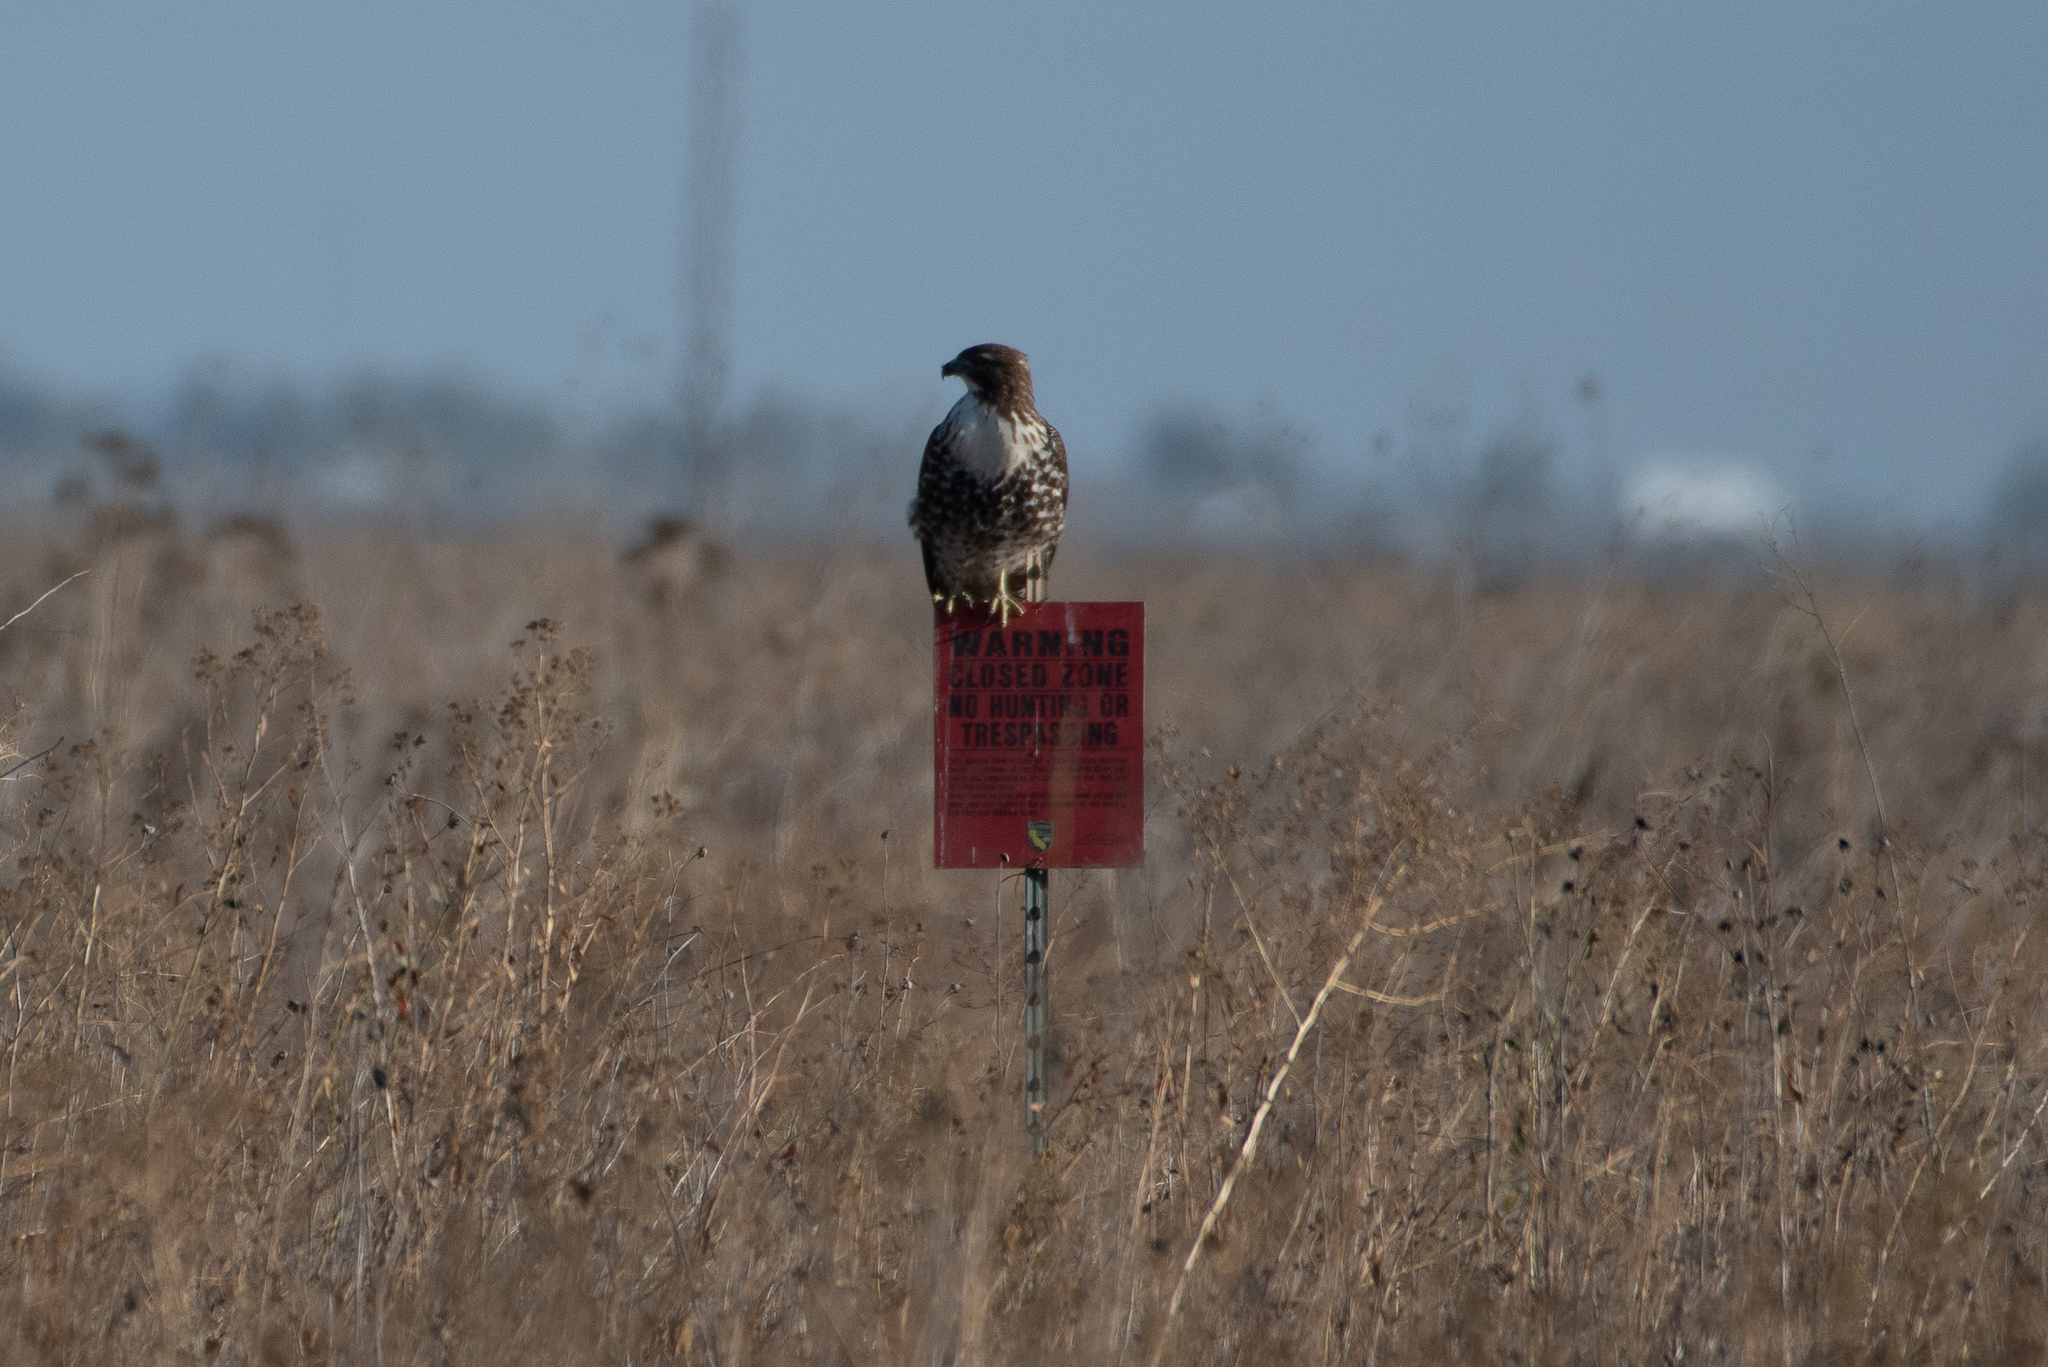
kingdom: Animalia
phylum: Chordata
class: Aves
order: Accipitriformes
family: Accipitridae
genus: Buteo
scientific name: Buteo jamaicensis
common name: Red-tailed hawk
